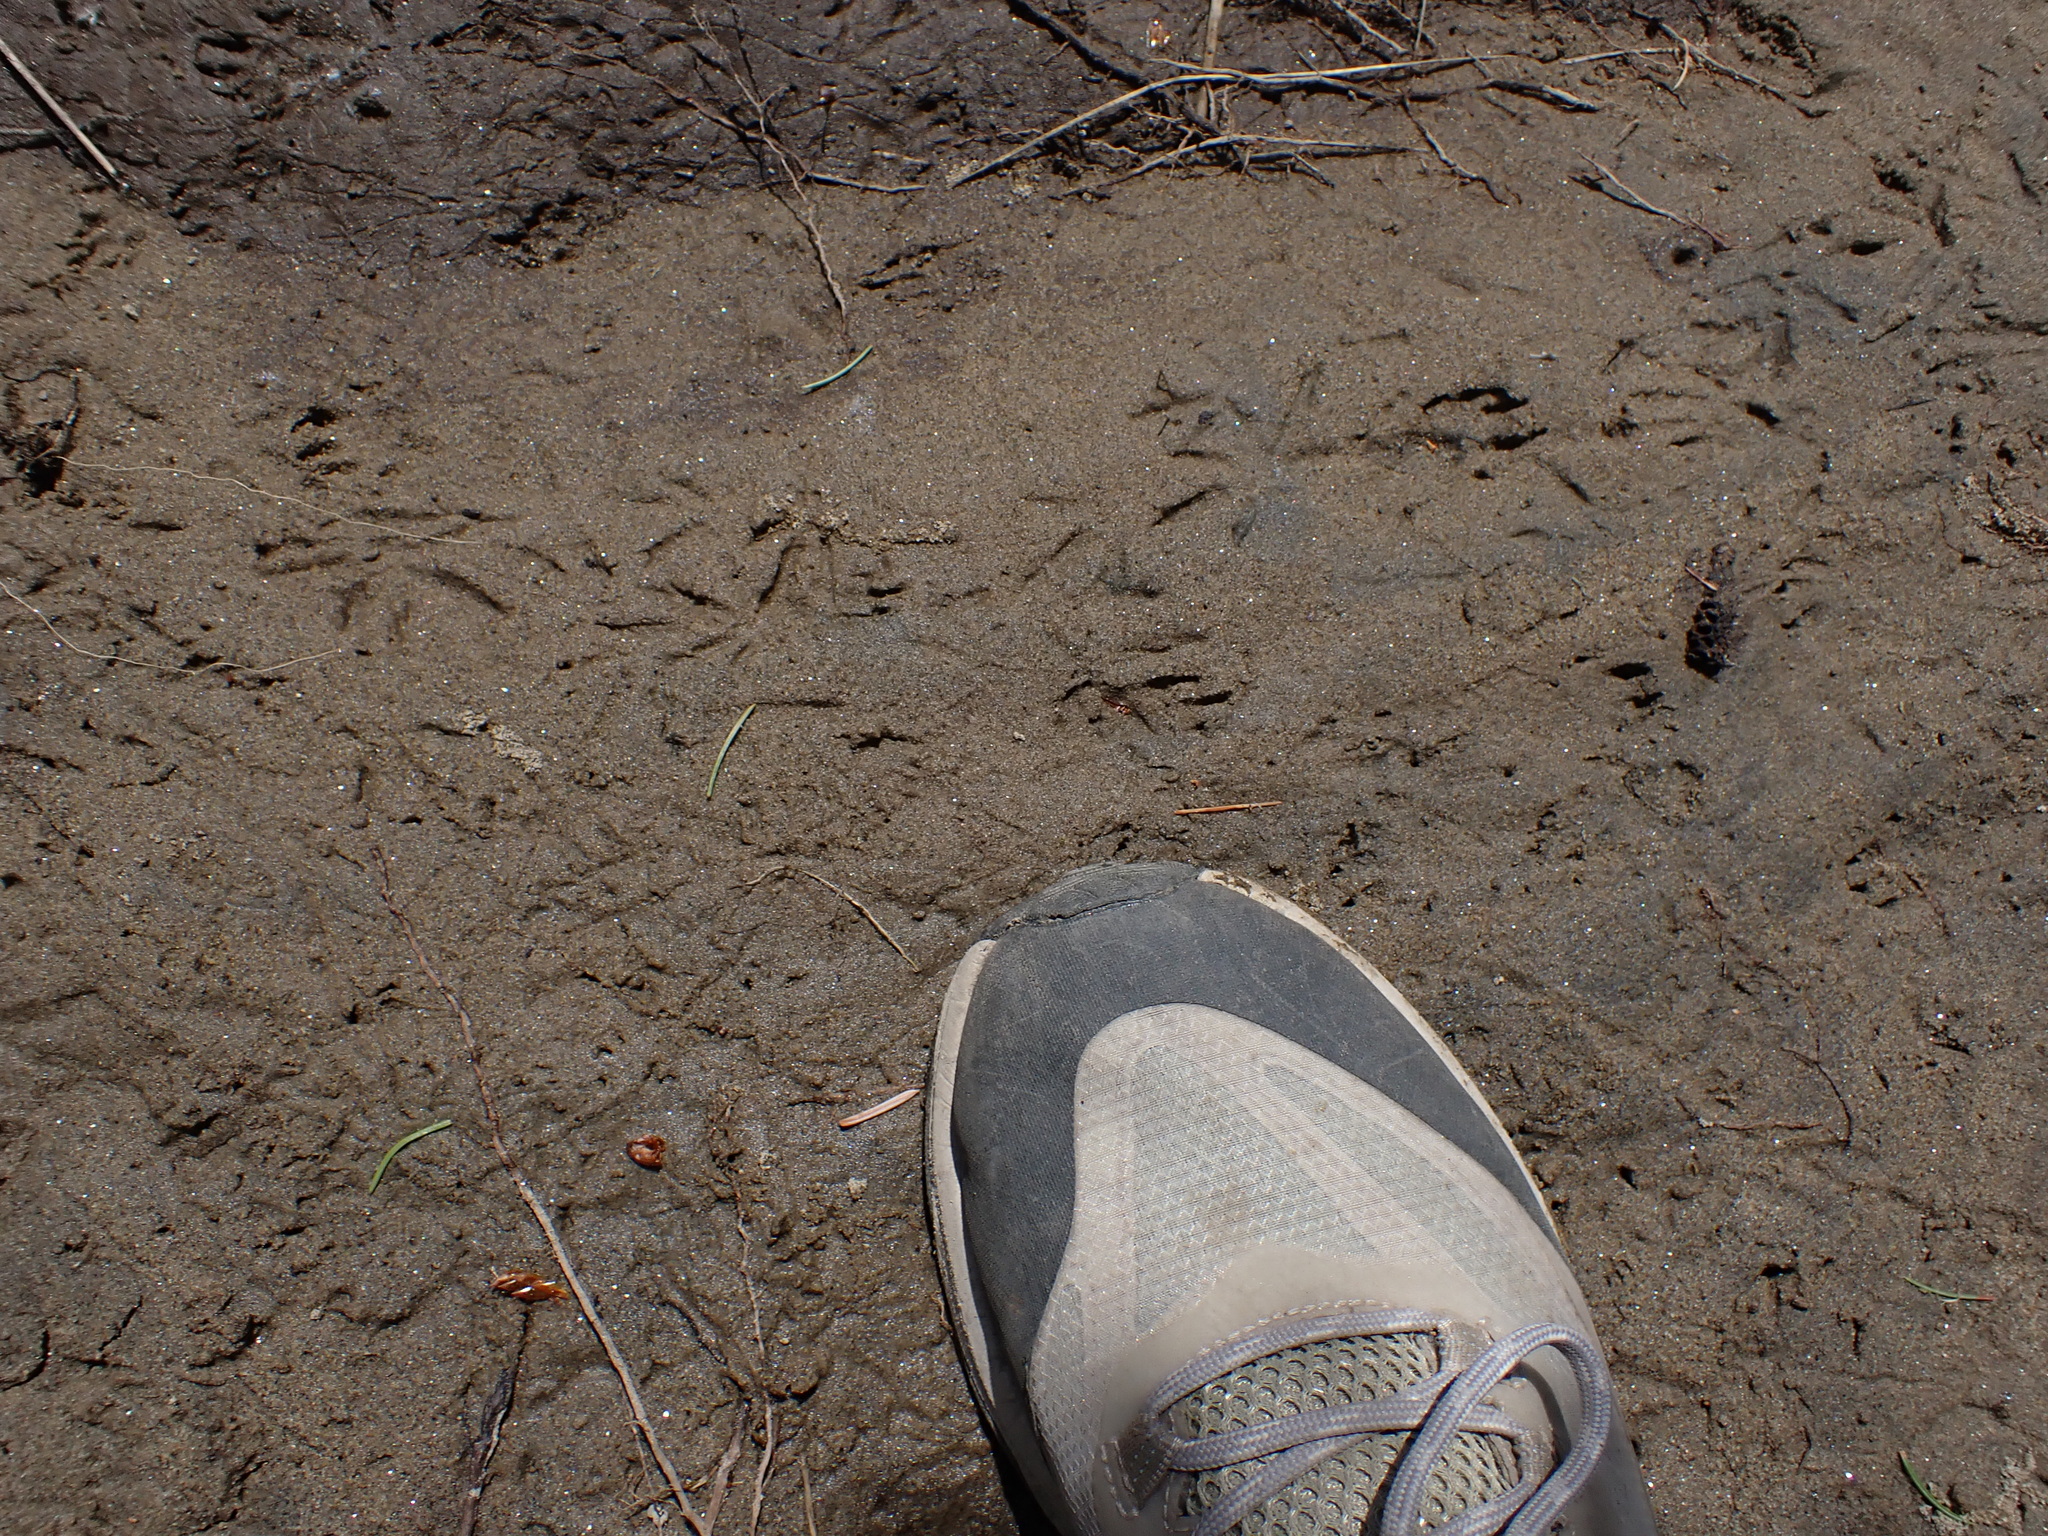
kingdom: Animalia
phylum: Chordata
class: Aves
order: Passeriformes
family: Turdidae
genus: Turdus
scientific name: Turdus migratorius
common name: American robin
